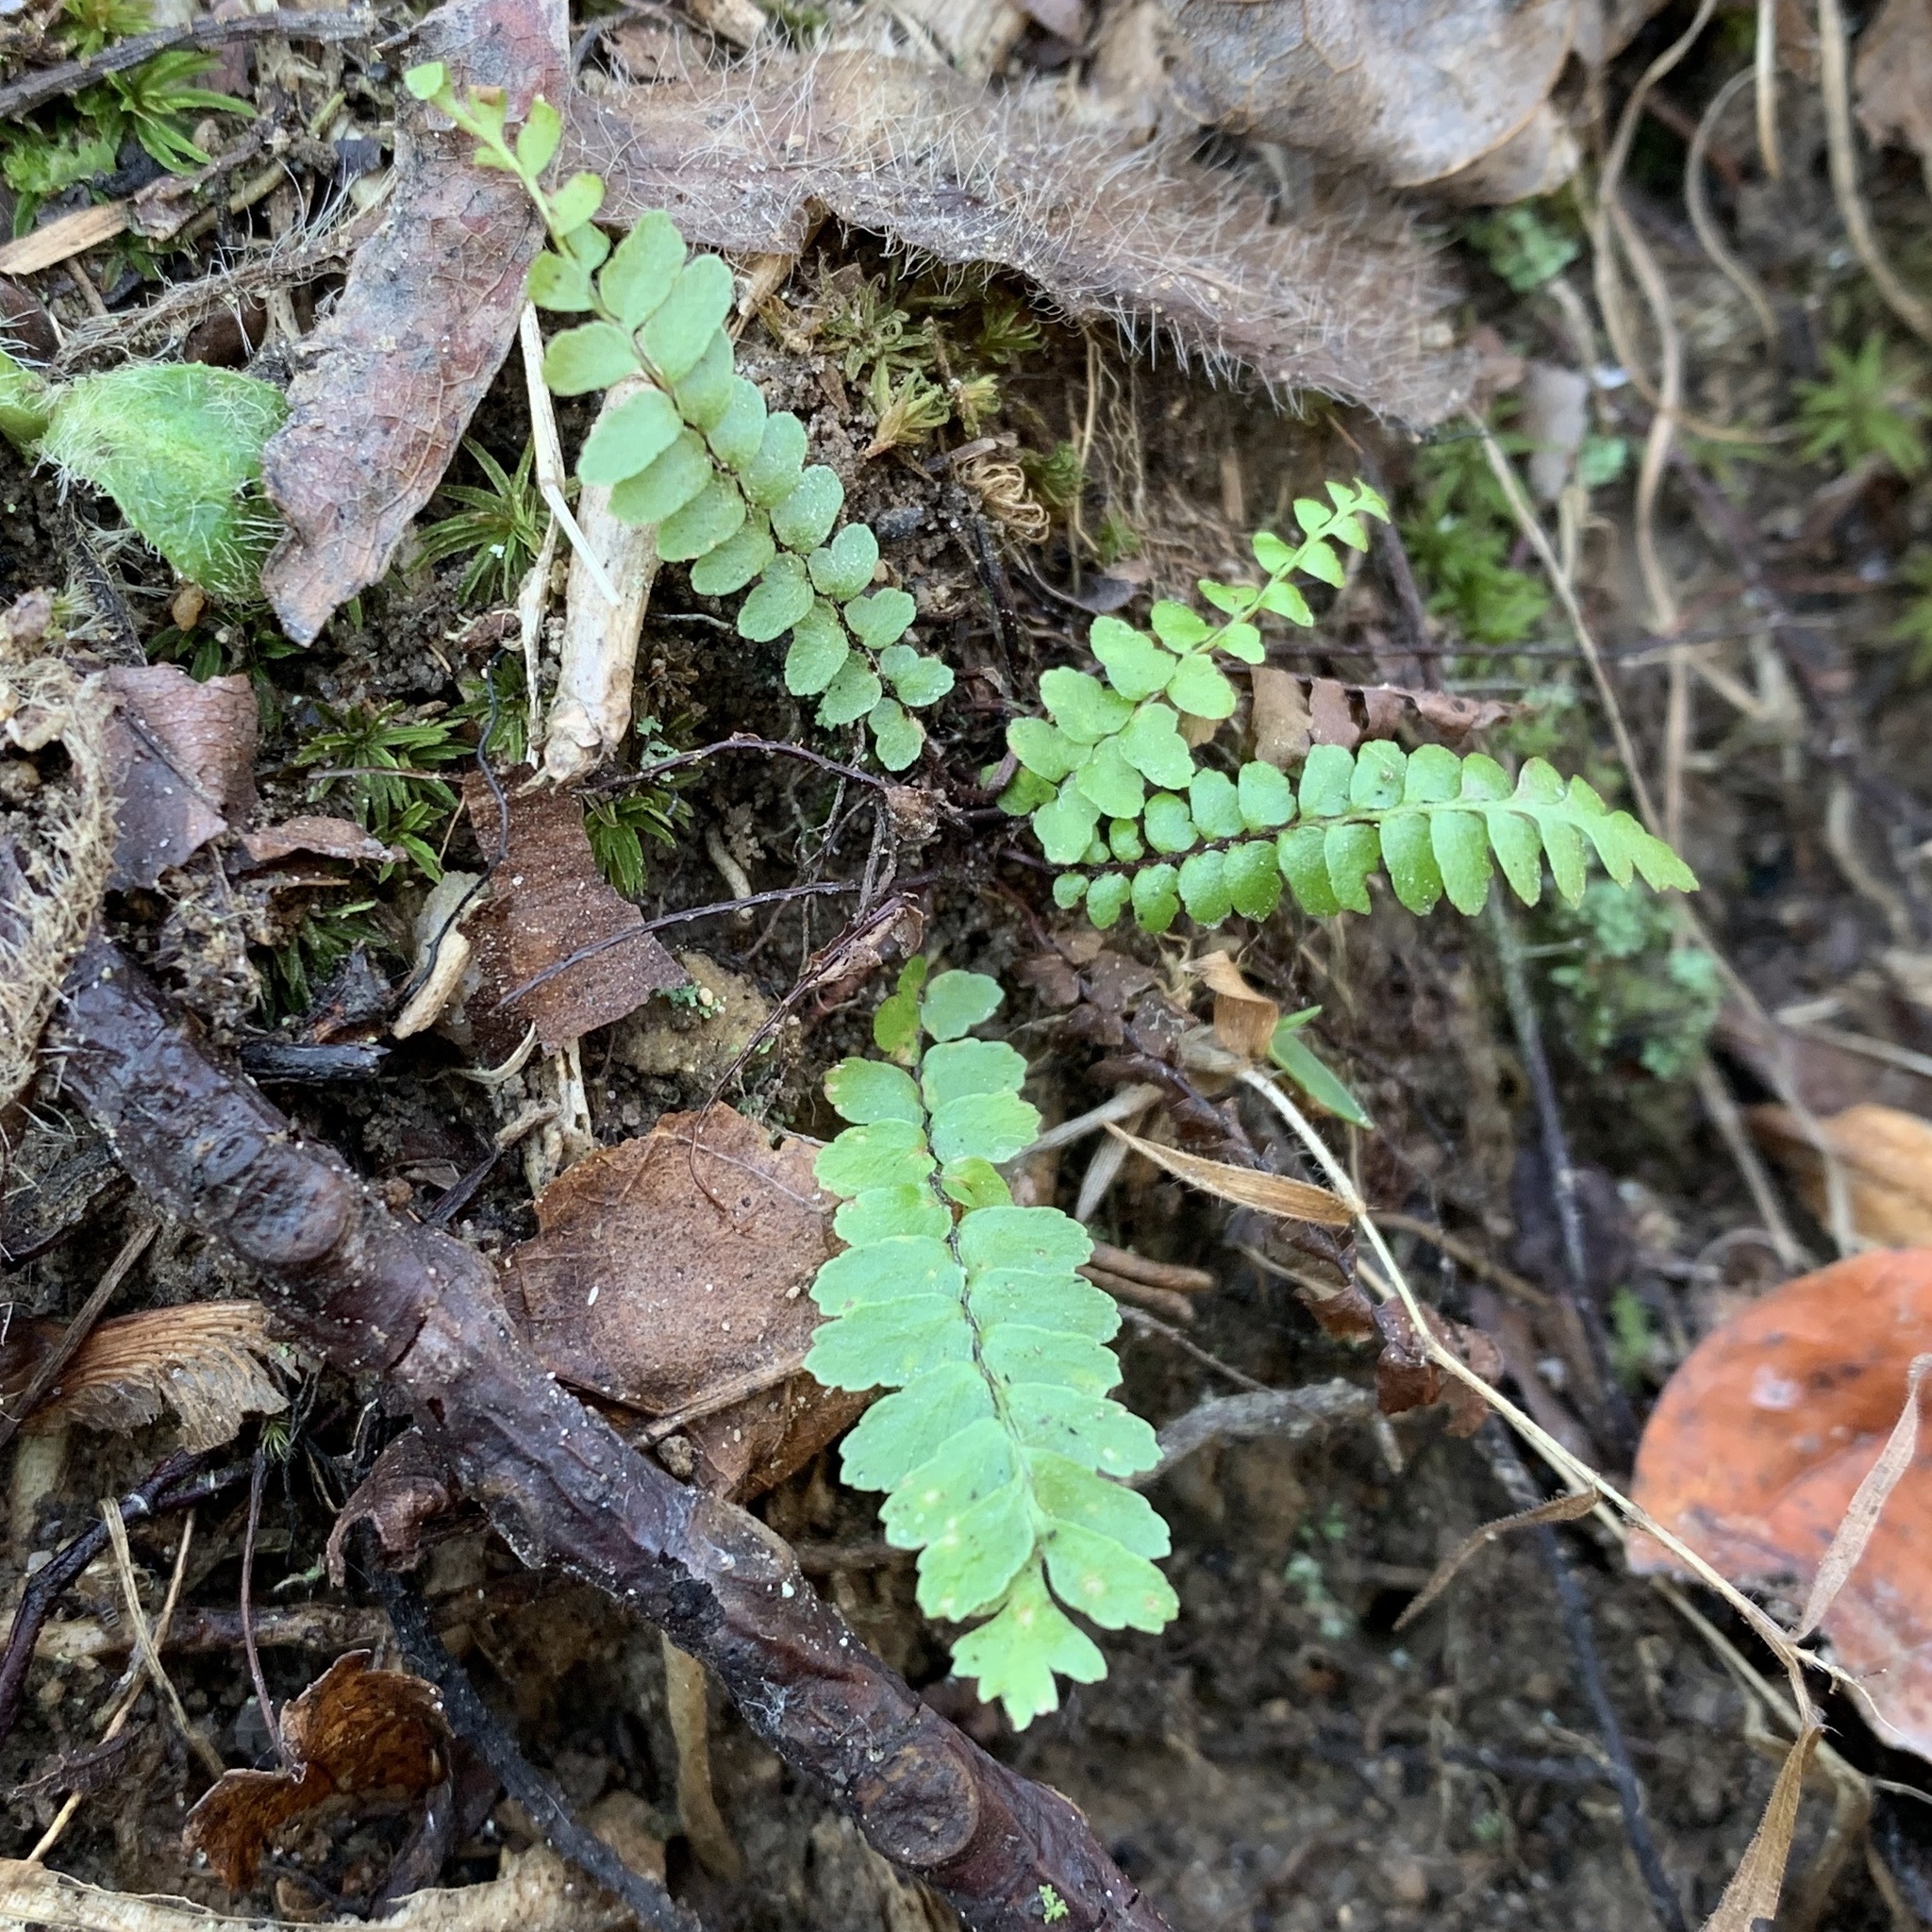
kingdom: Plantae
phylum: Tracheophyta
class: Polypodiopsida
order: Polypodiales
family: Aspleniaceae
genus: Asplenium
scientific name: Asplenium platyneuron
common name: Ebony spleenwort
